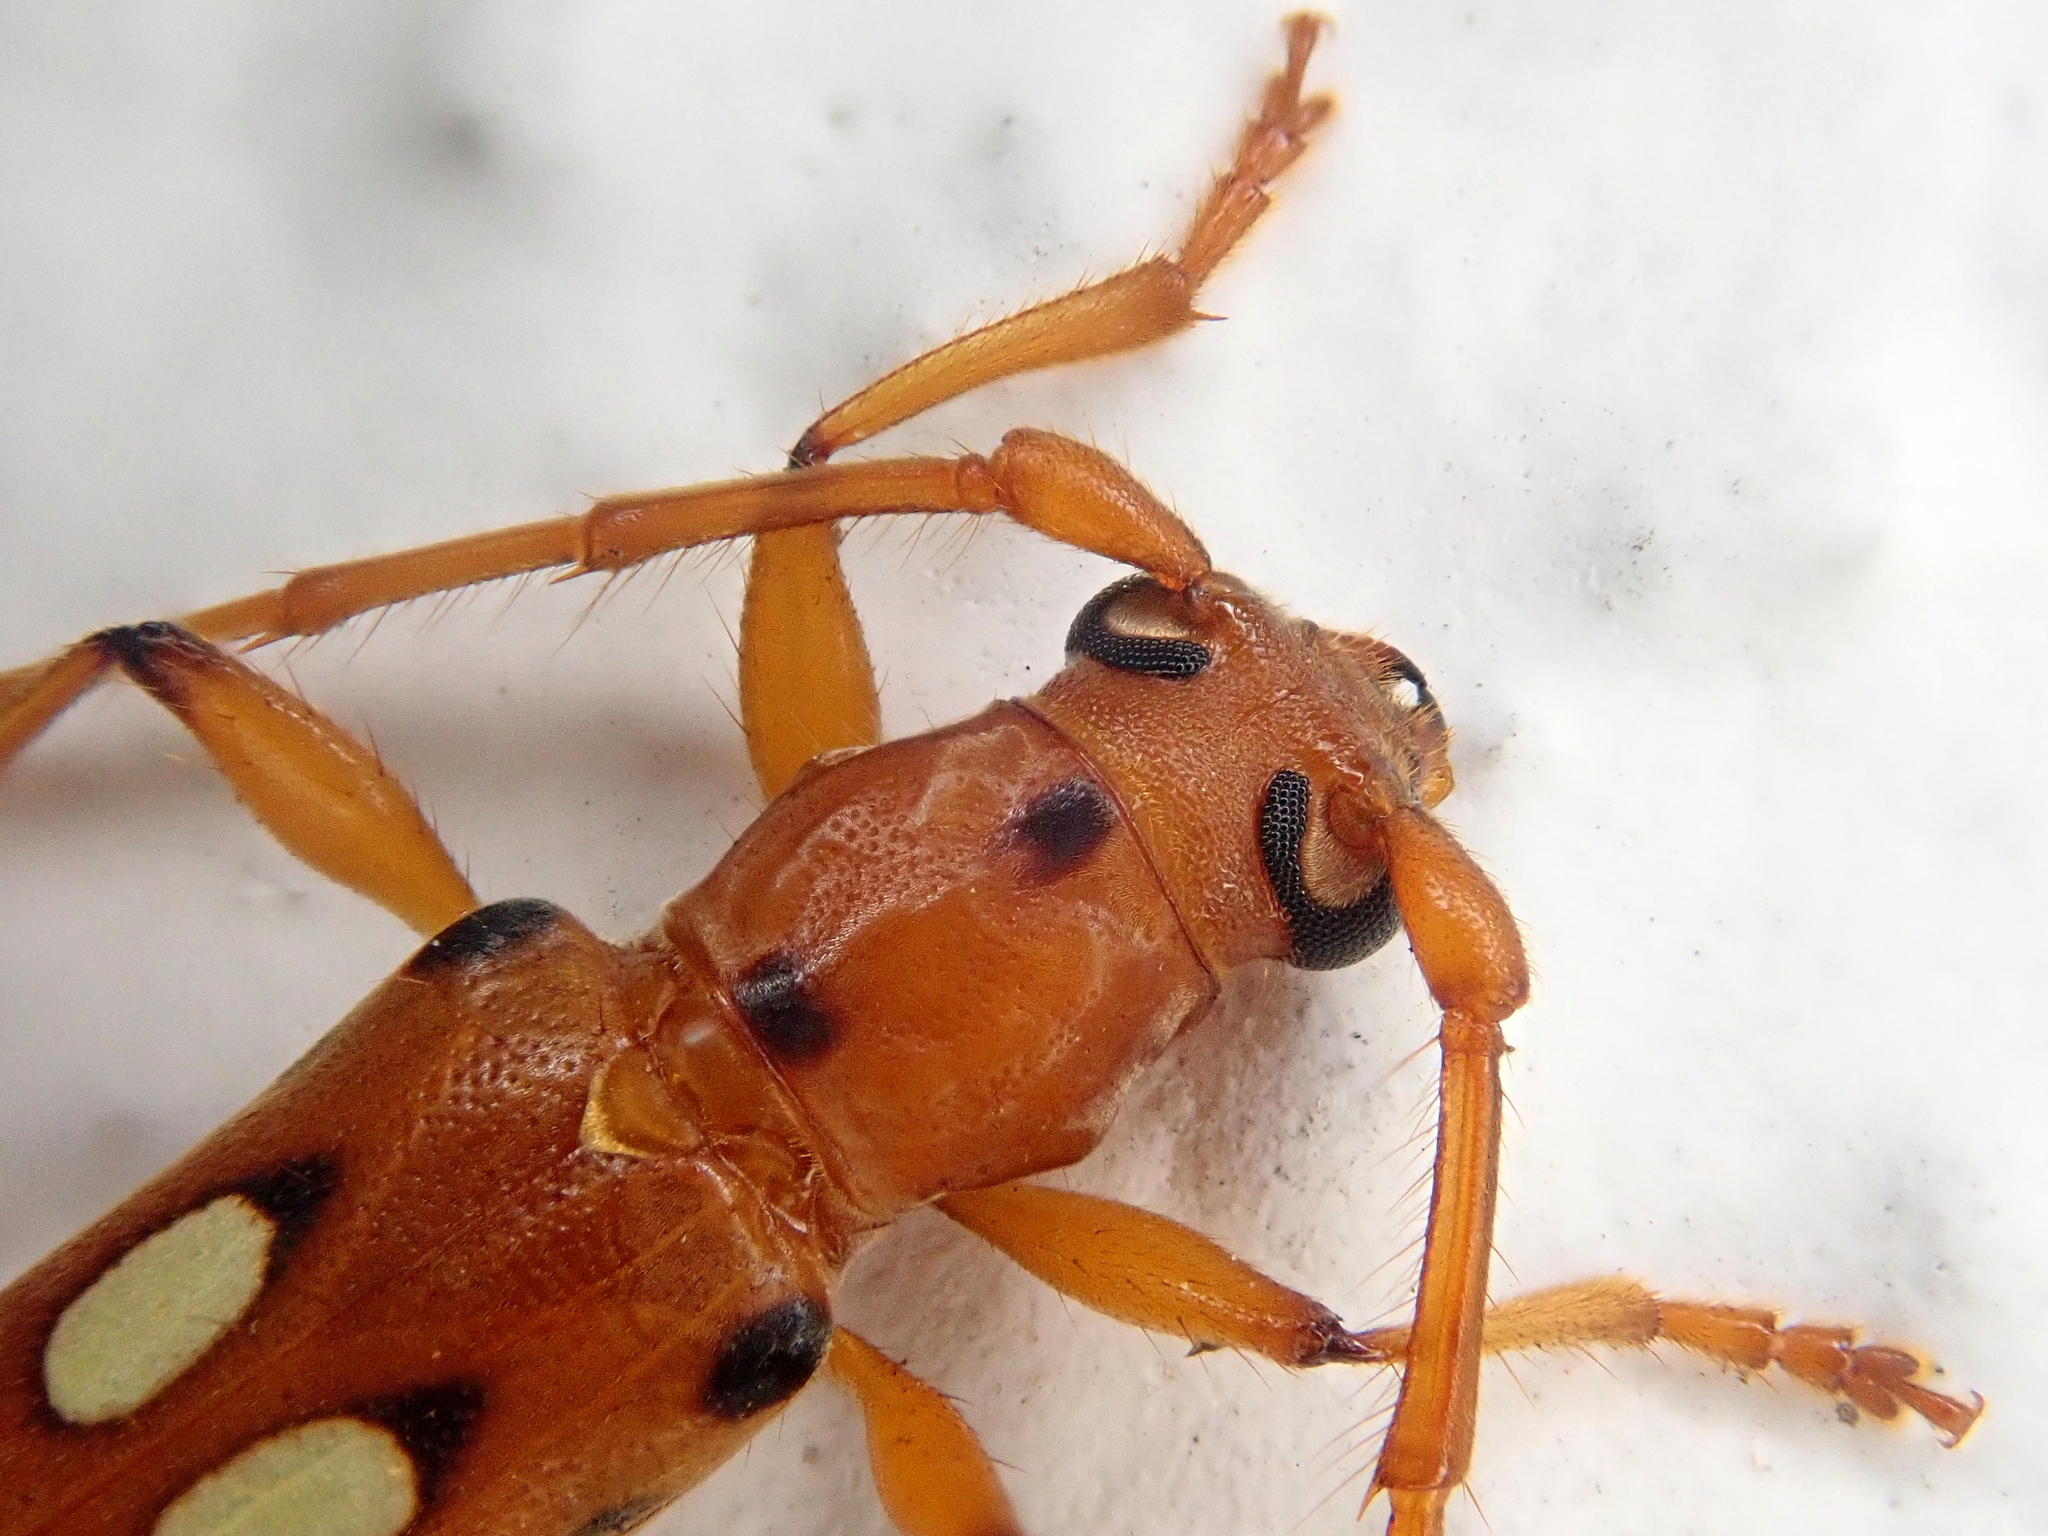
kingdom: Animalia
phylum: Arthropoda
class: Insecta
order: Coleoptera
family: Cerambycidae
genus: Paranyssicus
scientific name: Paranyssicus conspicillatus
